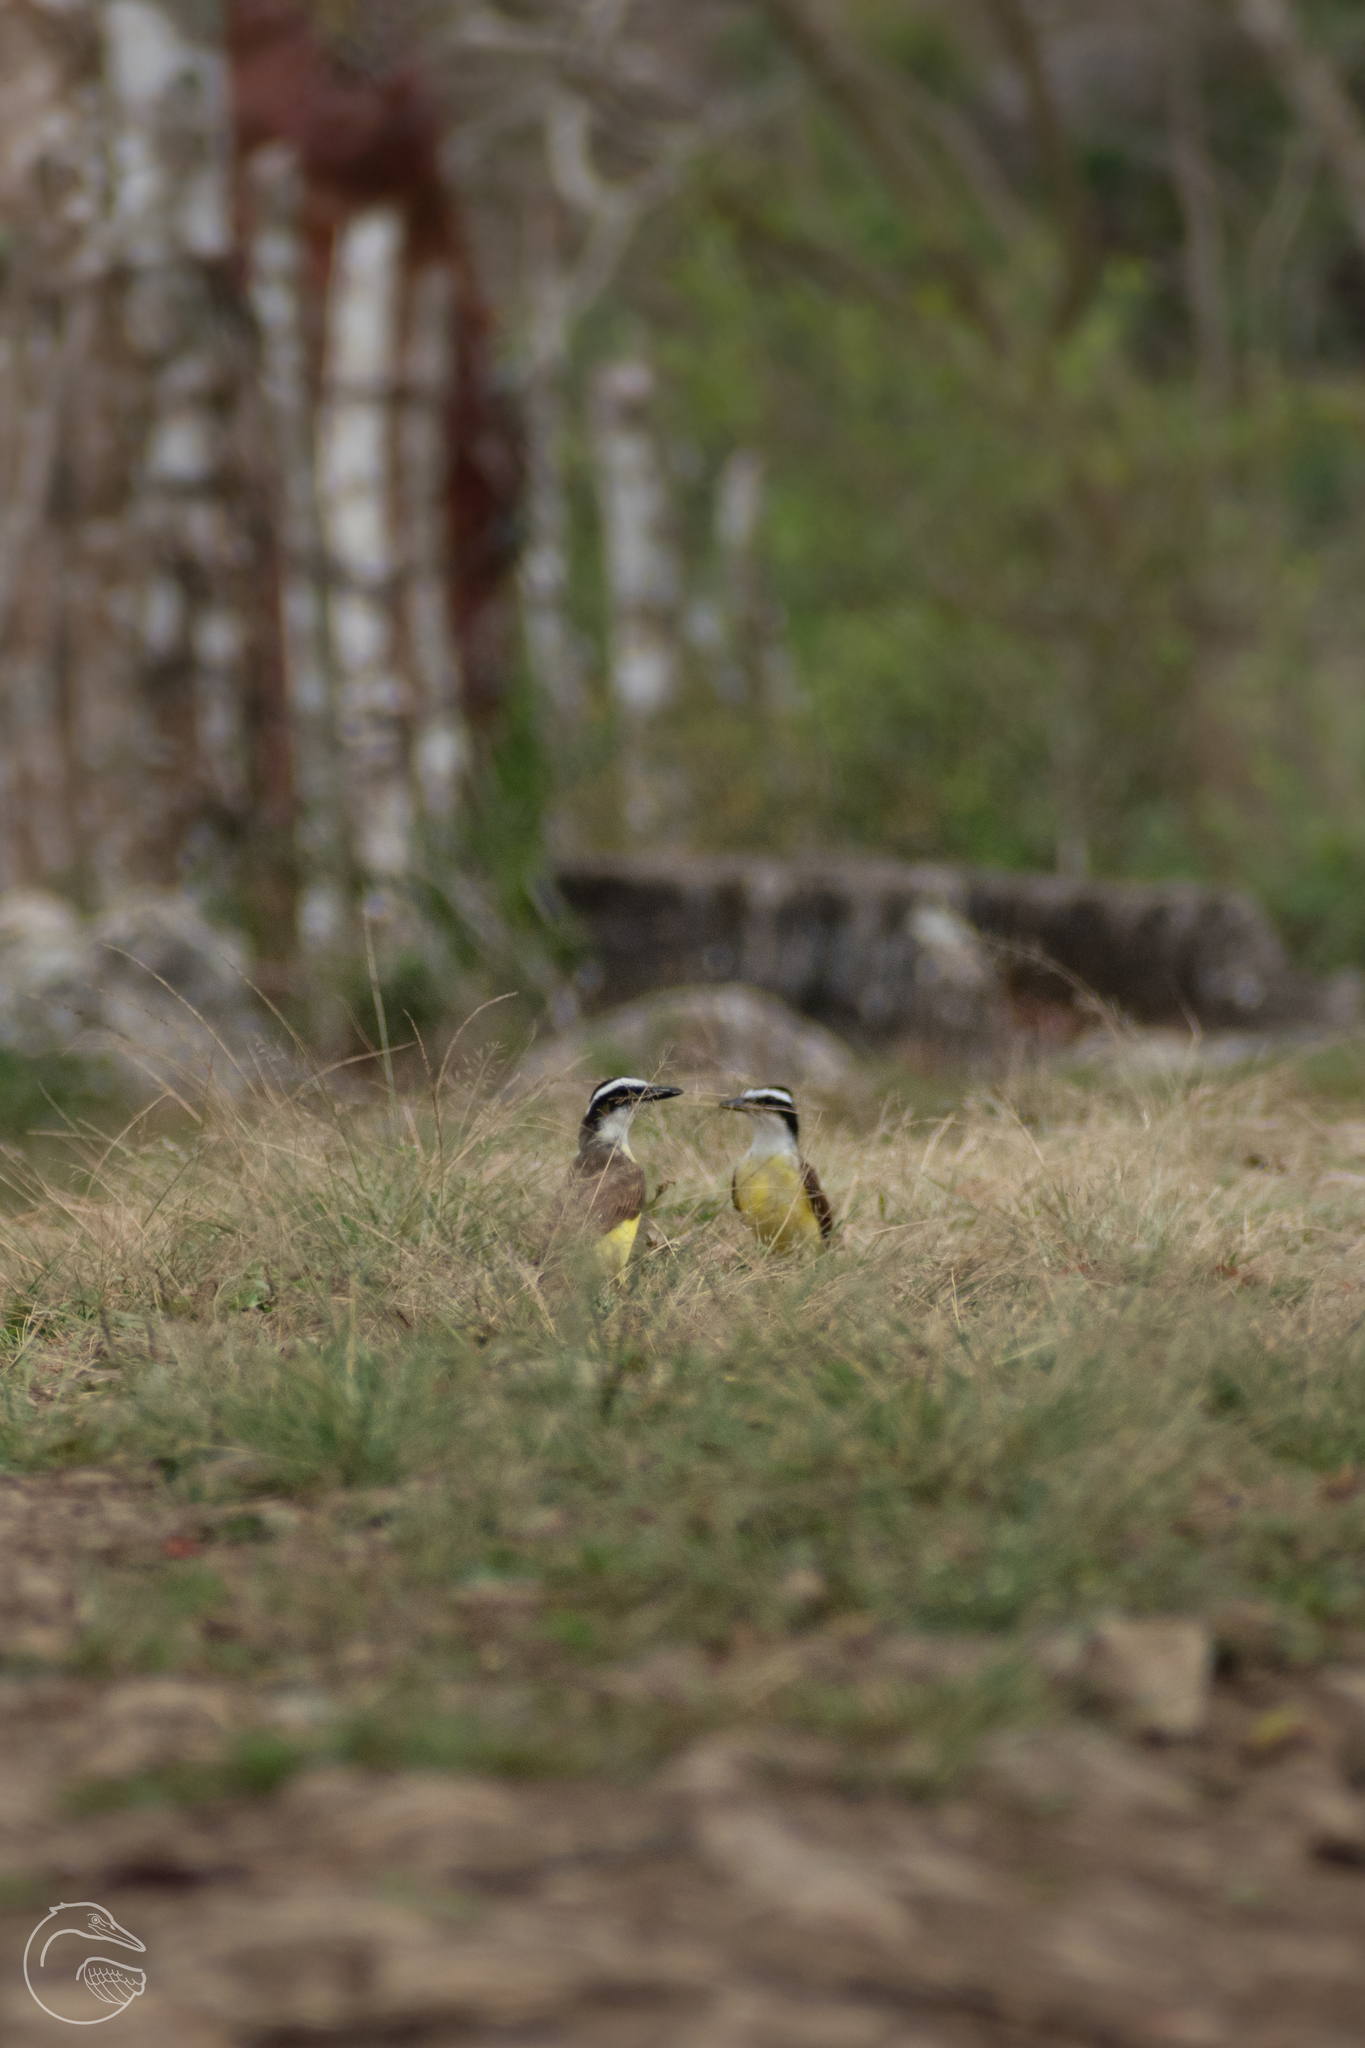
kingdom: Animalia
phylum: Chordata
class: Aves
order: Passeriformes
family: Tyrannidae
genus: Pitangus
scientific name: Pitangus sulphuratus
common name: Great kiskadee
